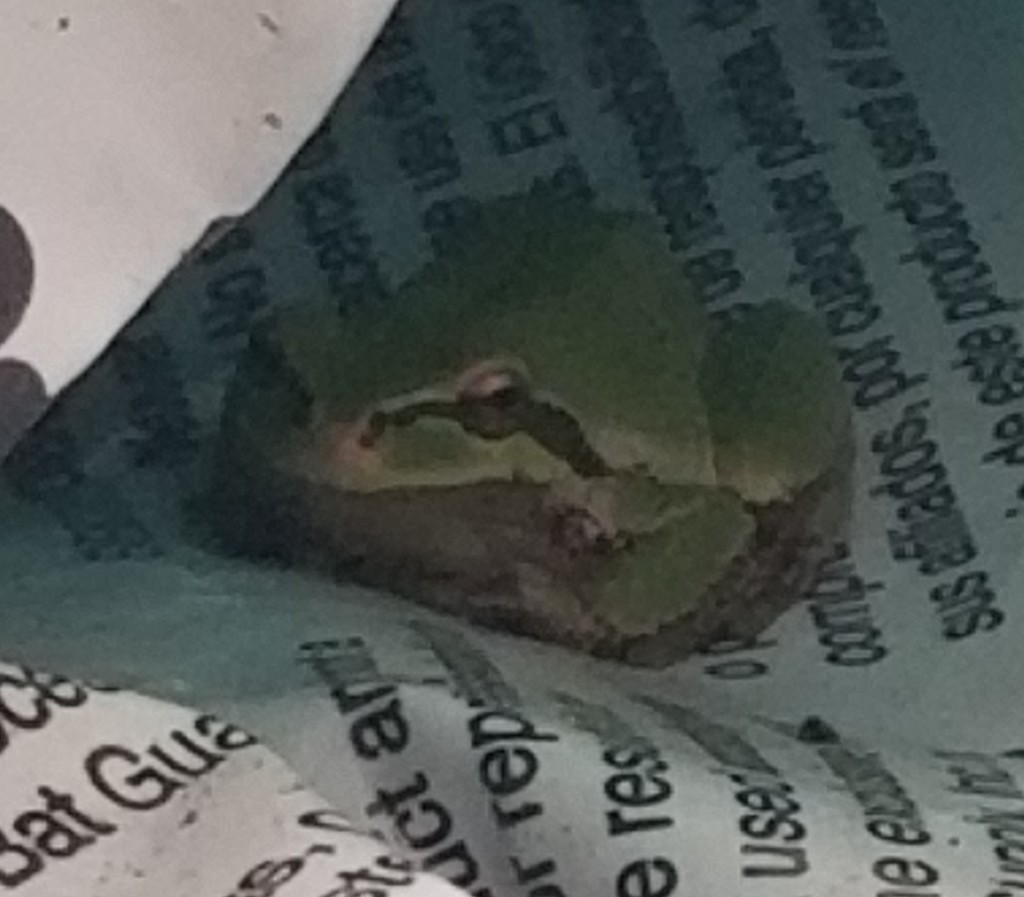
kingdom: Animalia
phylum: Chordata
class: Amphibia
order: Anura
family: Hylidae
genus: Pseudacris
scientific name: Pseudacris regilla
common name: Pacific chorus frog
